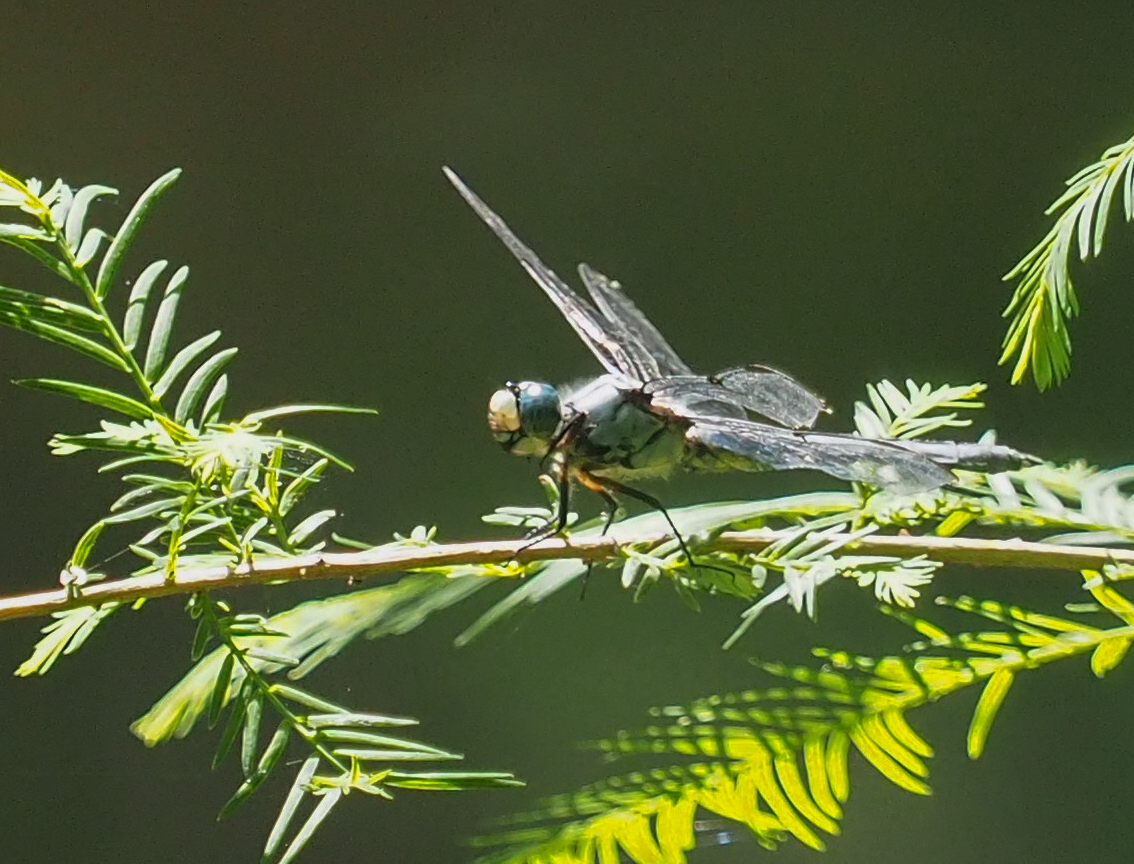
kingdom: Animalia
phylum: Arthropoda
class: Insecta
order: Odonata
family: Libellulidae
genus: Libellula
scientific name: Libellula vibrans
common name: Great blue skimmer
